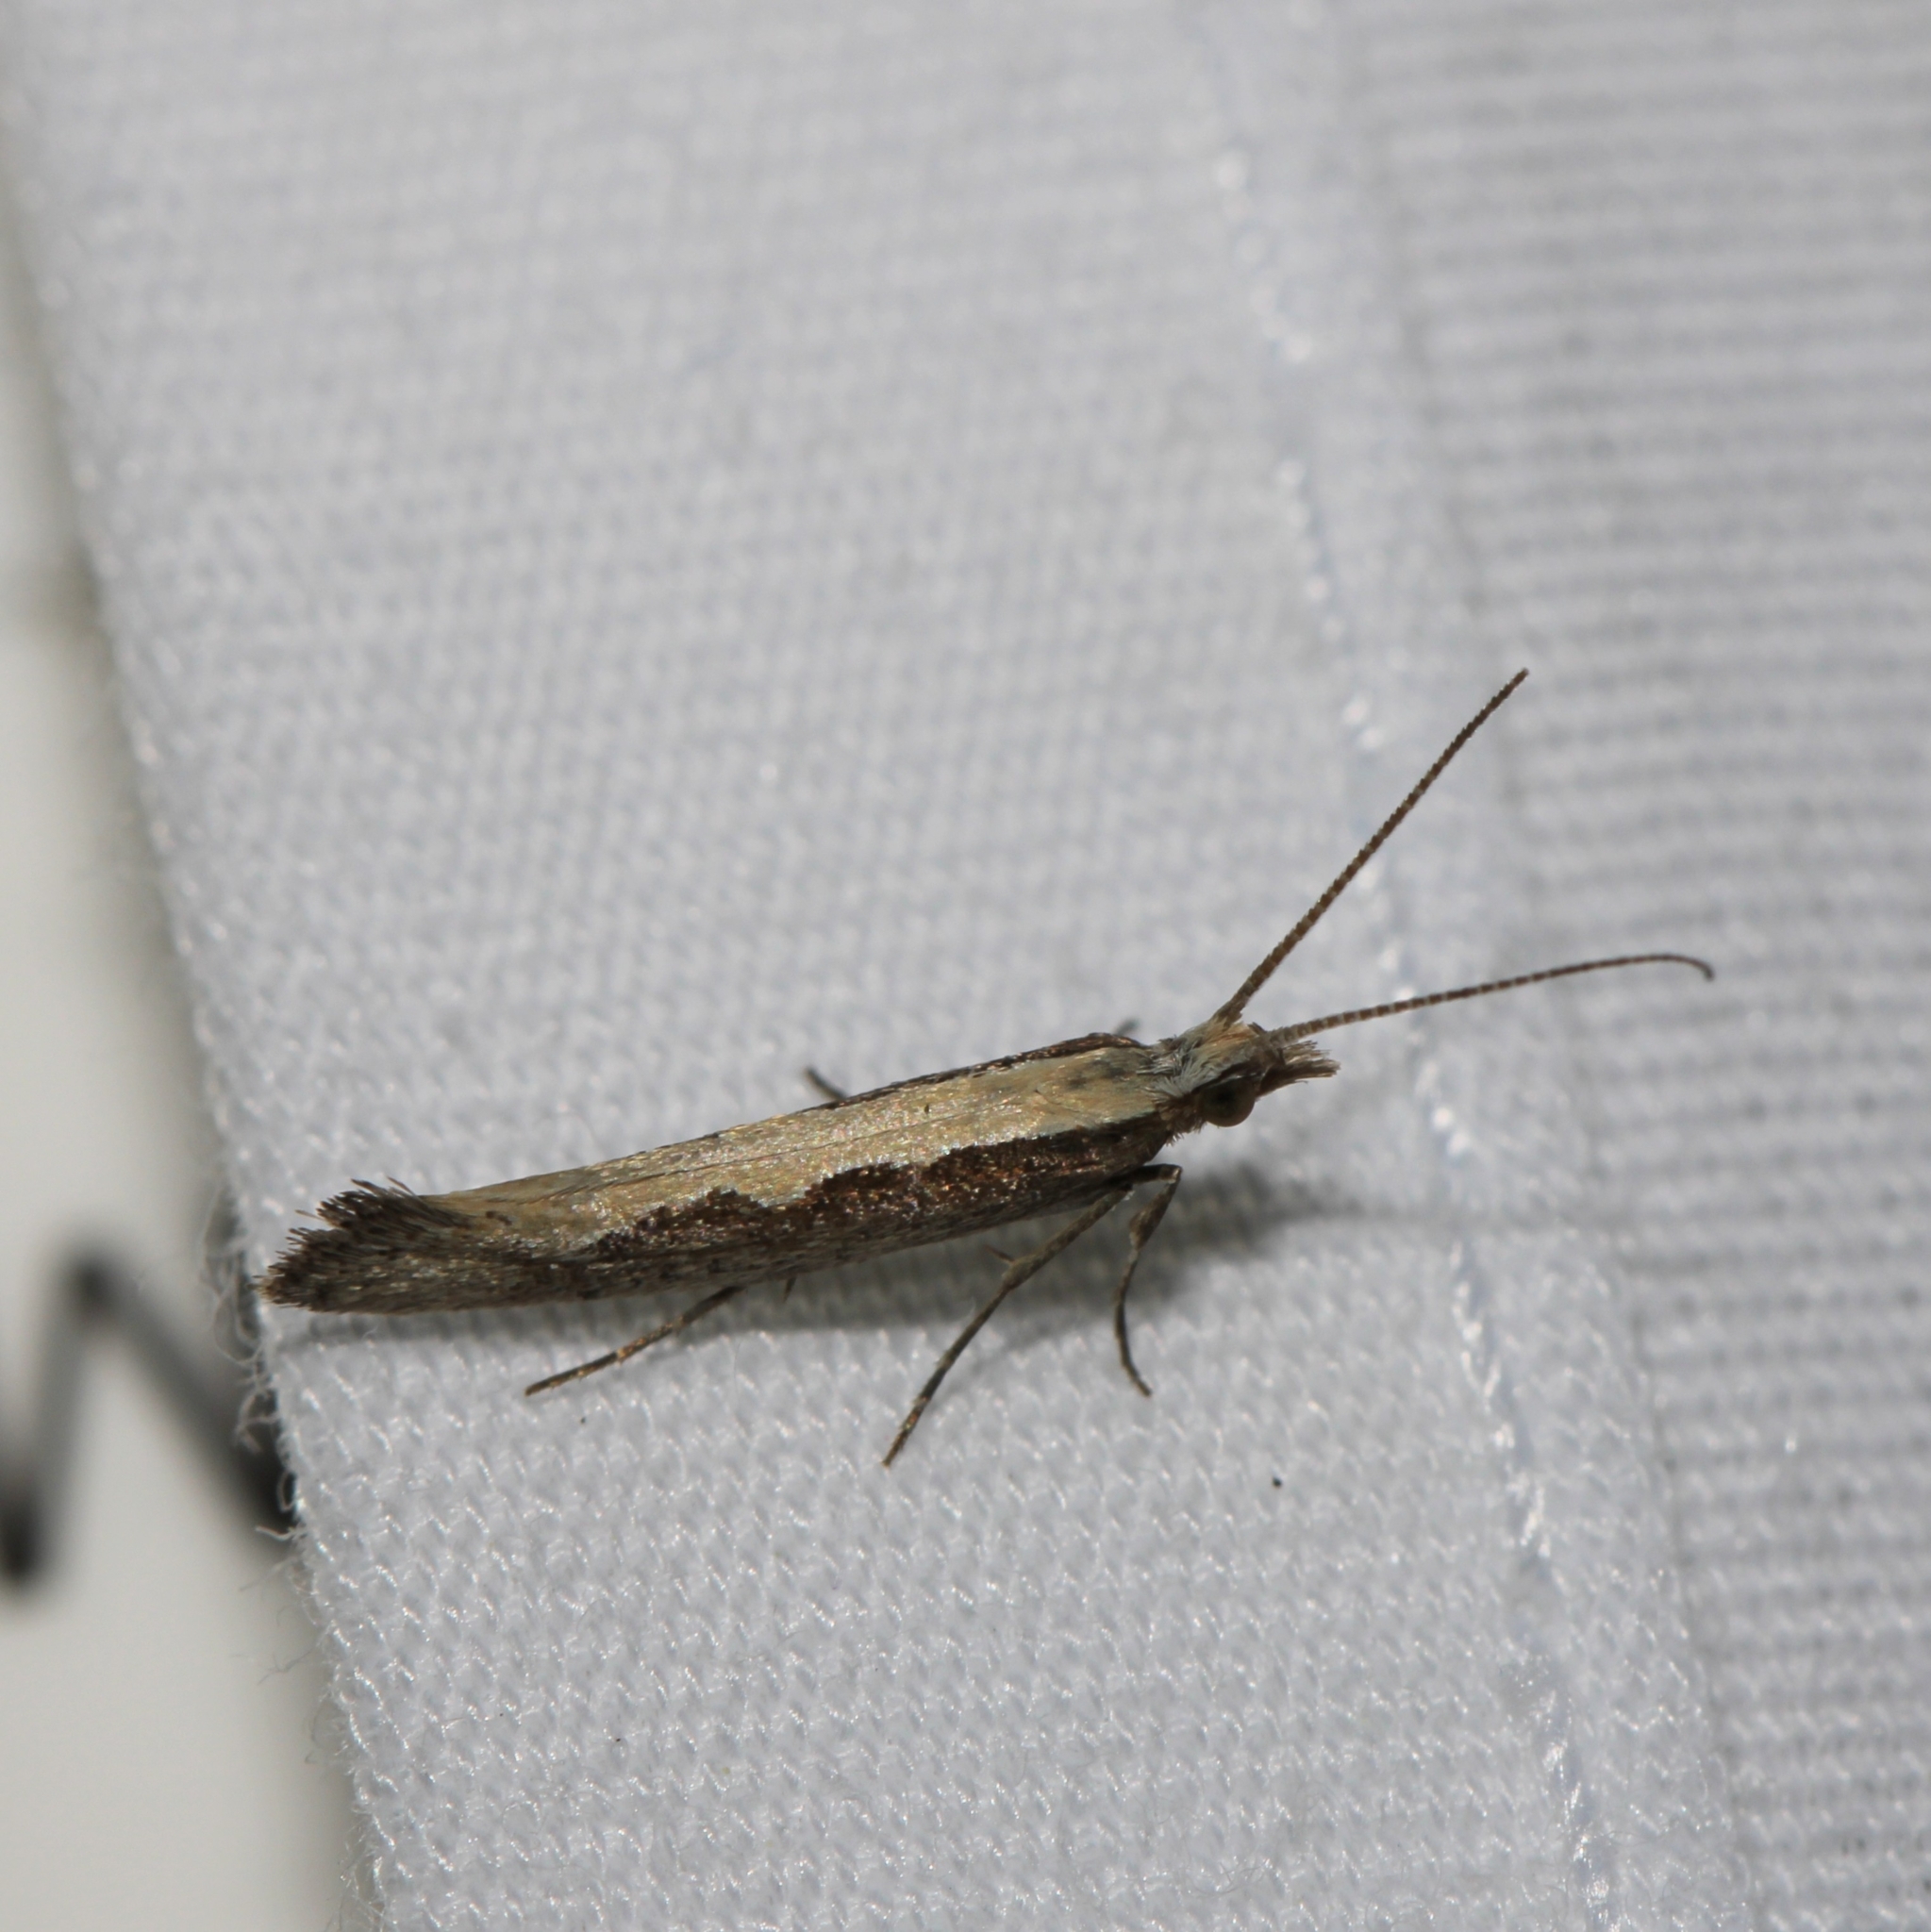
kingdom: Animalia
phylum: Arthropoda
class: Insecta
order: Lepidoptera
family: Plutellidae
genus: Plutella
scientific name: Plutella xylostella
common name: Diamond-back moth
